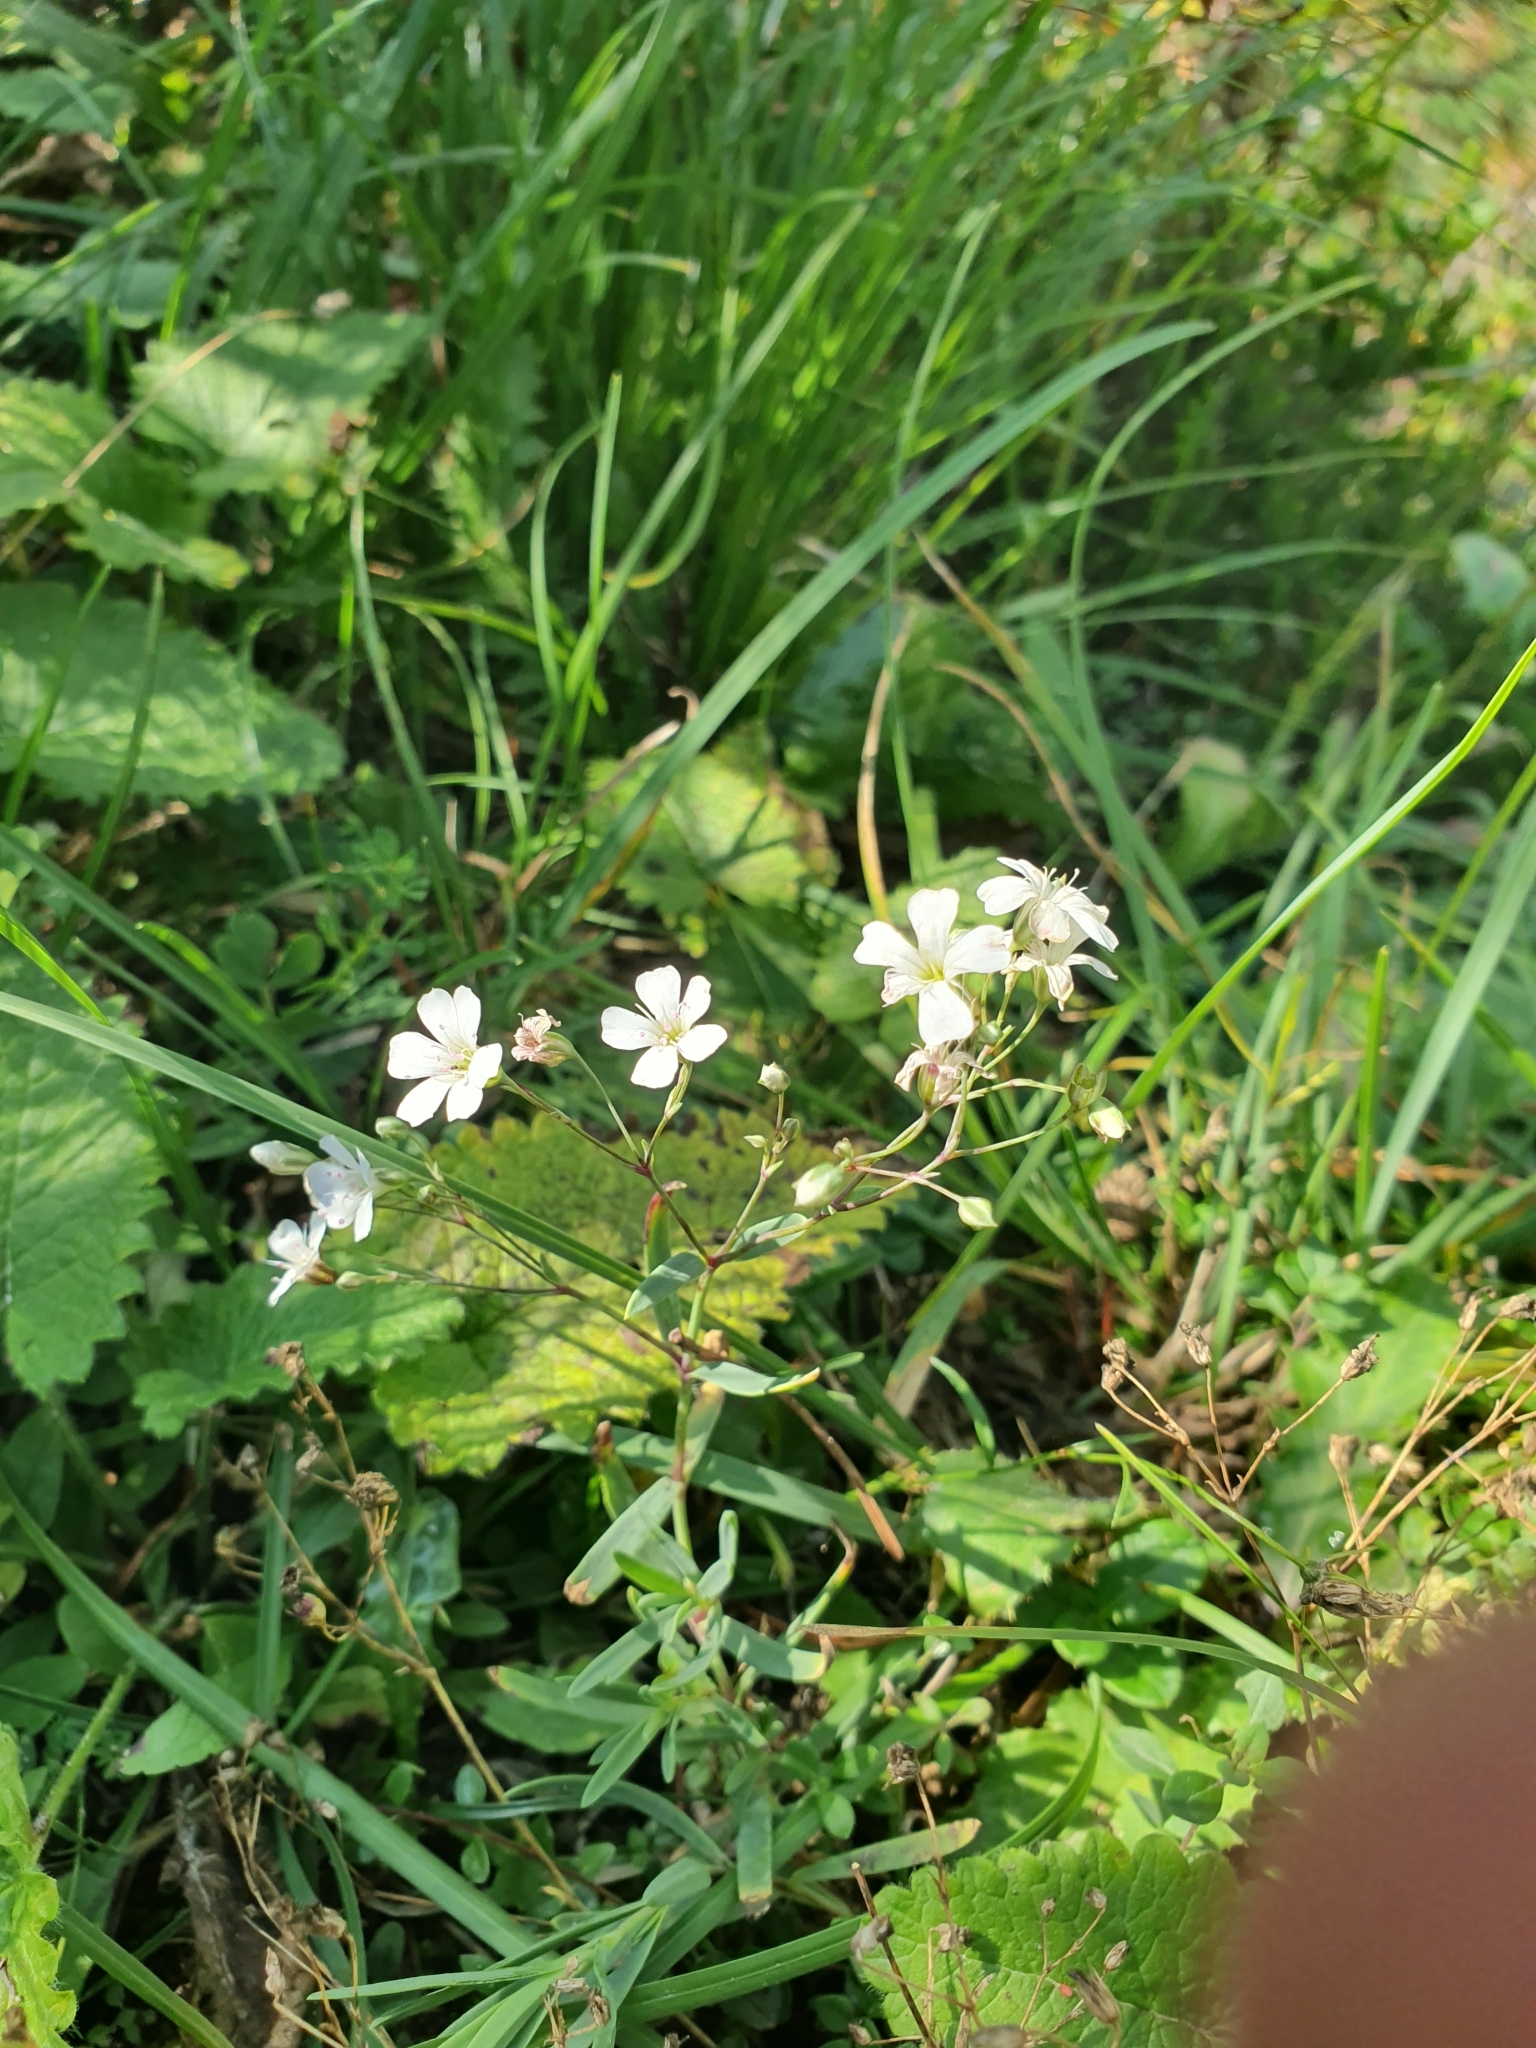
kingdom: Plantae
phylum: Tracheophyta
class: Magnoliopsida
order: Caryophyllales
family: Caryophyllaceae
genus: Gypsophila
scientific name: Gypsophila repens
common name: Creeping baby's-breath
